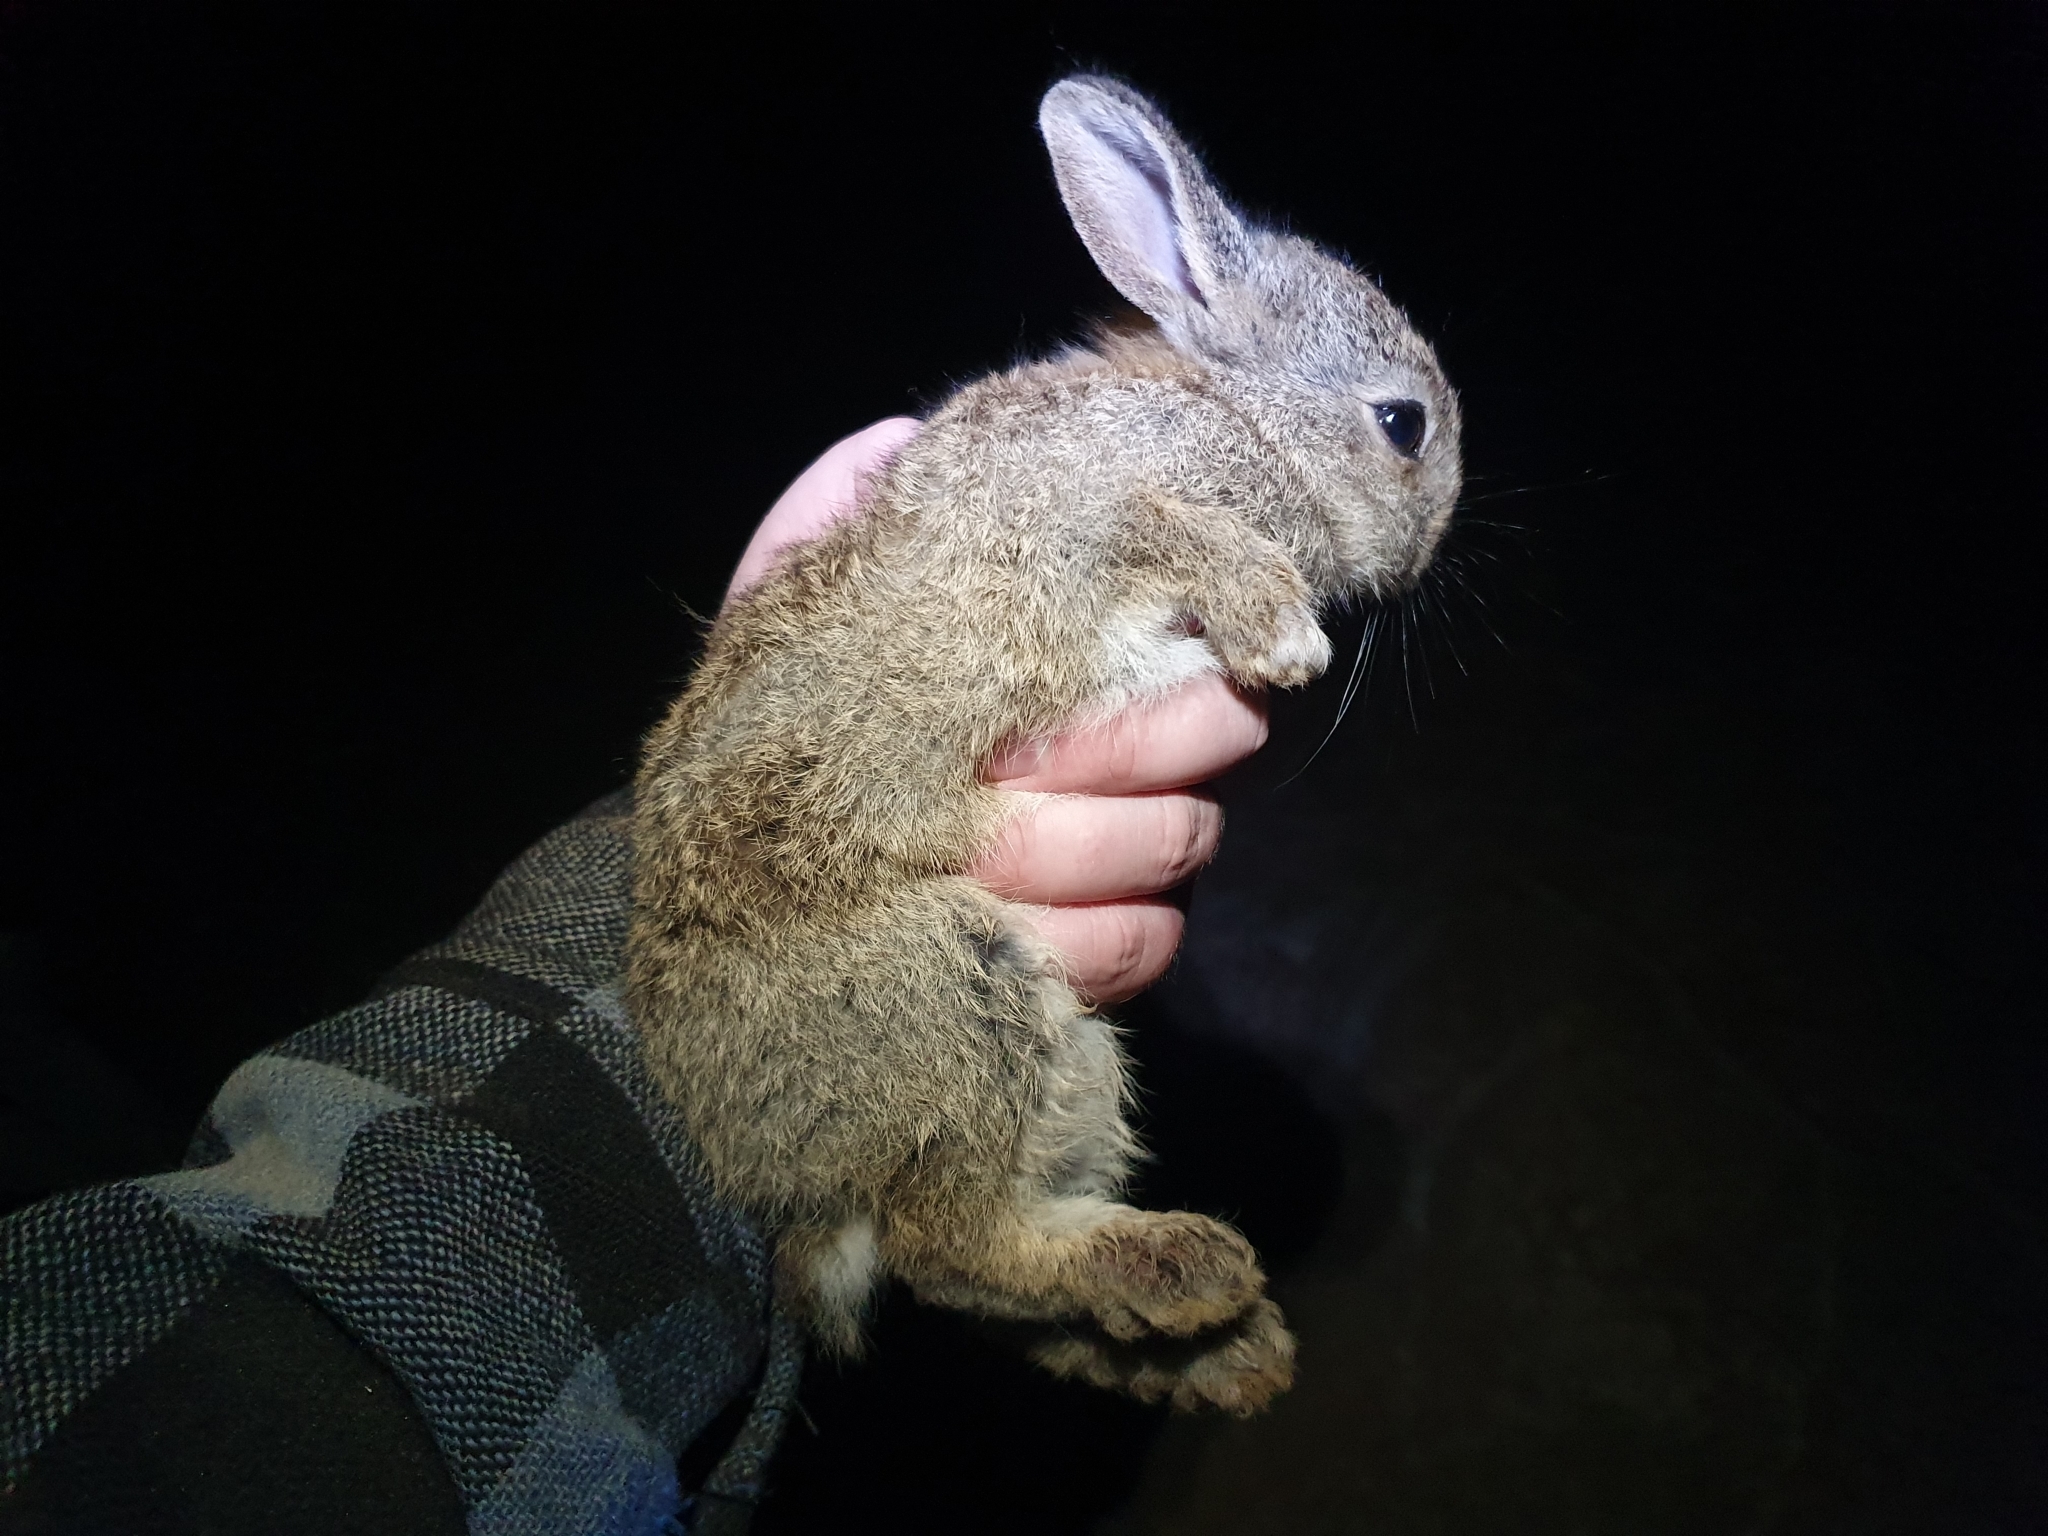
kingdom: Animalia
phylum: Chordata
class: Mammalia
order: Lagomorpha
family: Leporidae
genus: Oryctolagus
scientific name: Oryctolagus cuniculus
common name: European rabbit
